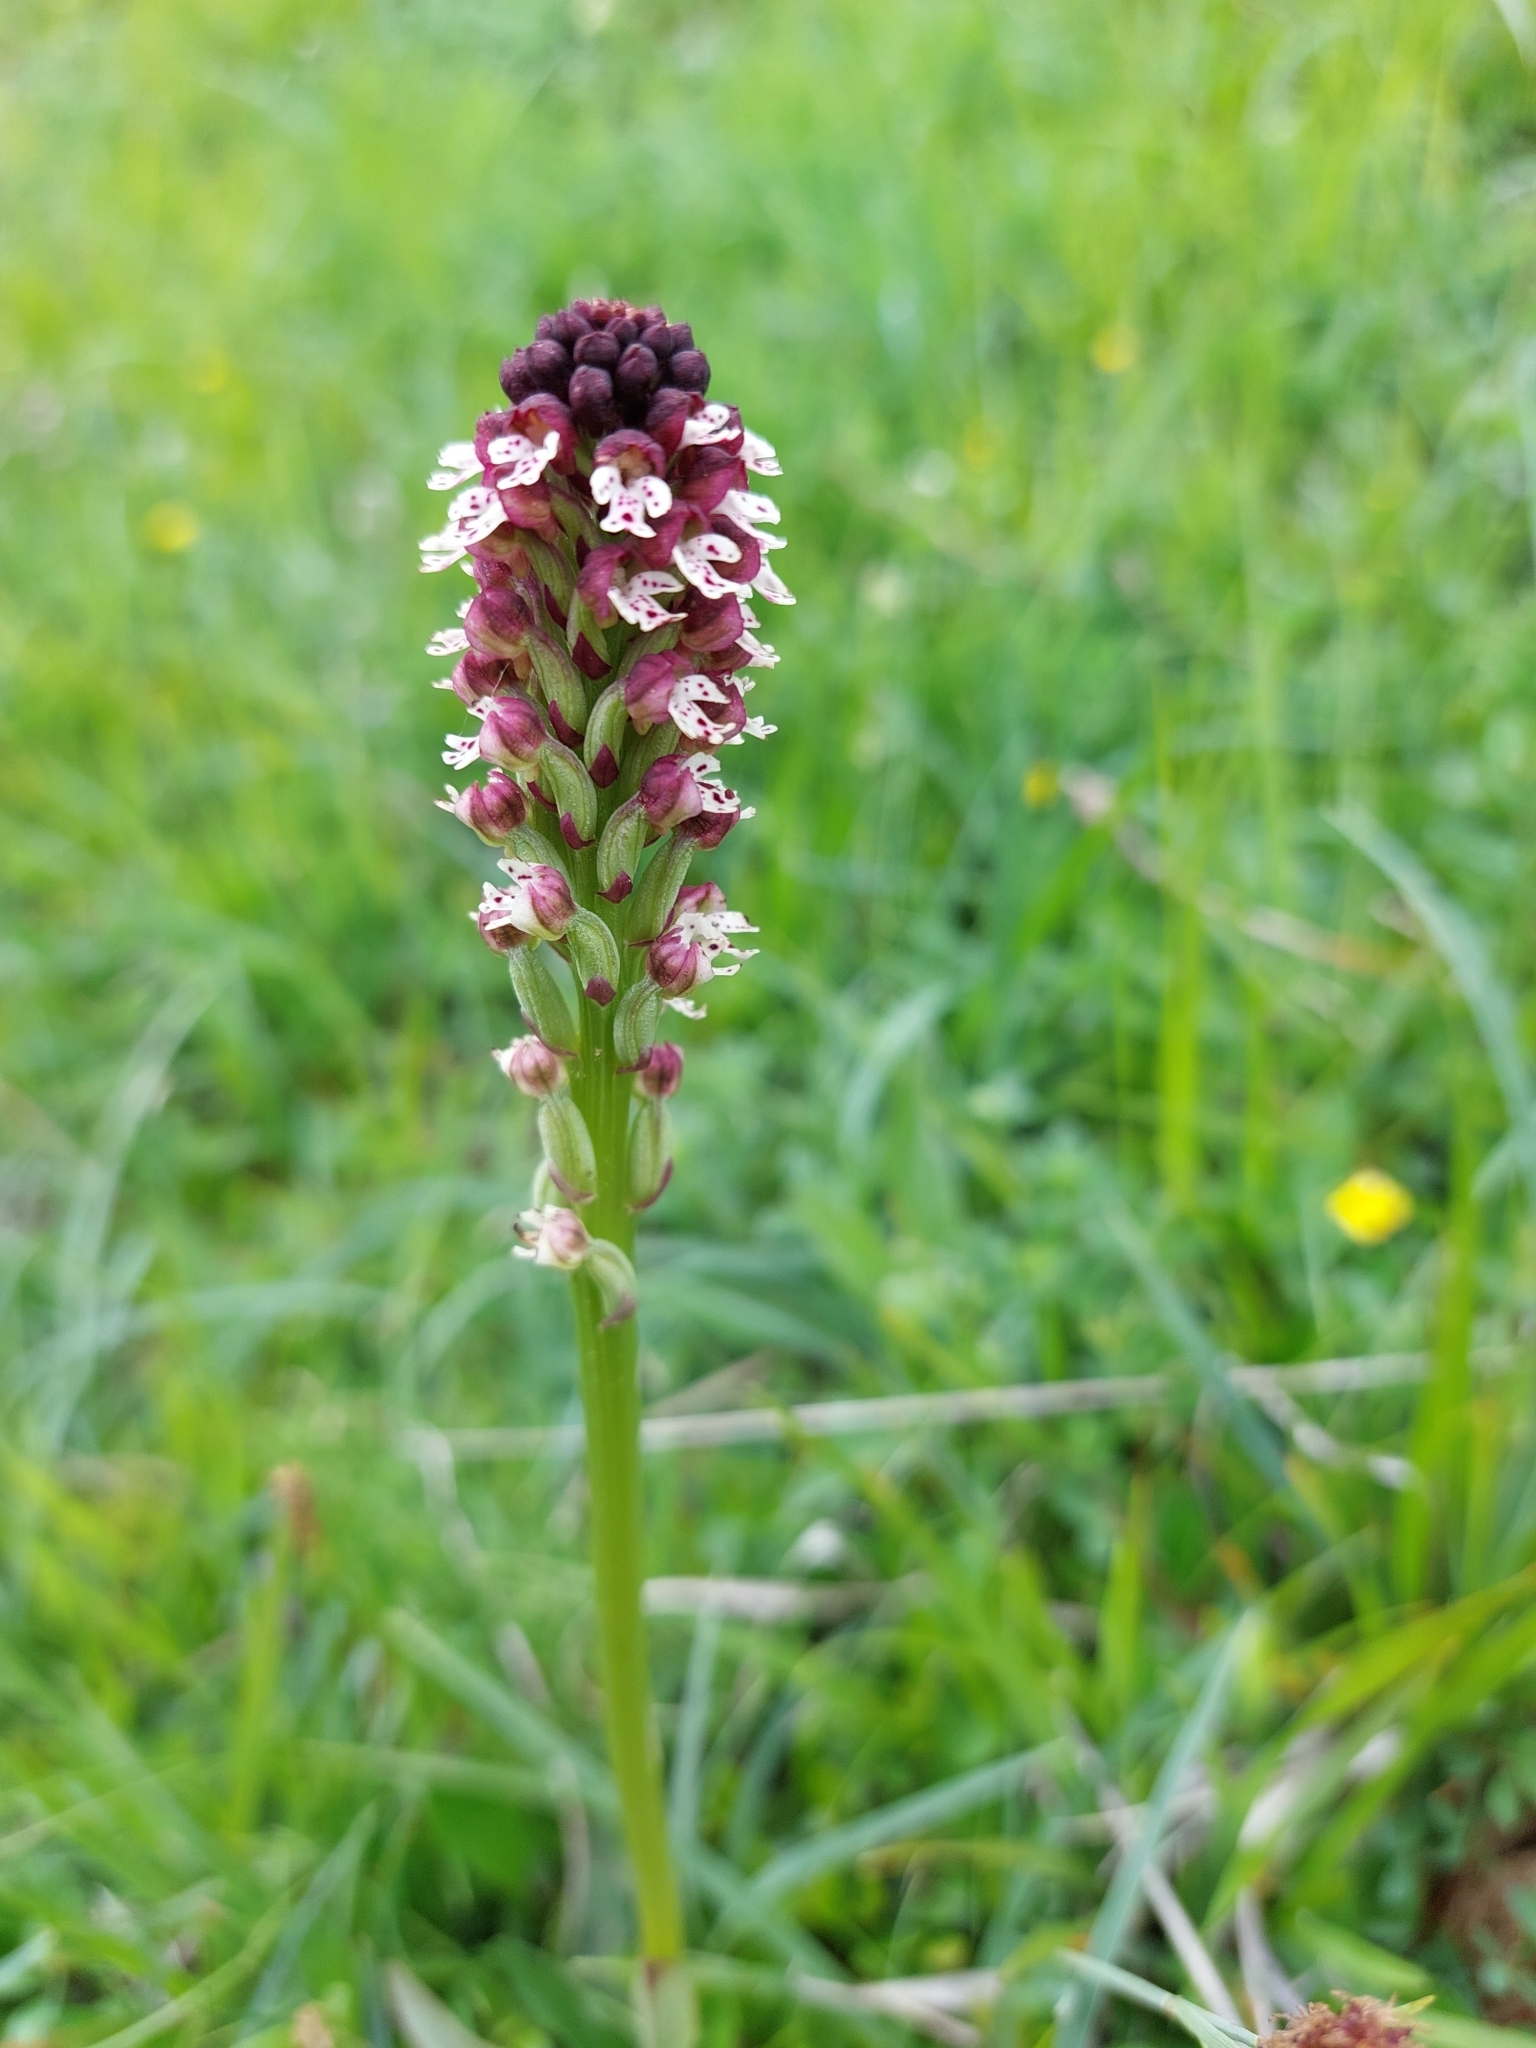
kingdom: Plantae
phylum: Tracheophyta
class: Liliopsida
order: Asparagales
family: Orchidaceae
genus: Neotinea
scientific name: Neotinea ustulata
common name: Burnt orchid
